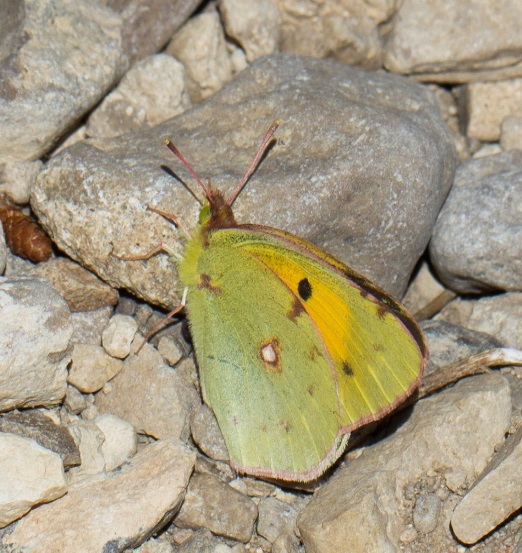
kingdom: Animalia
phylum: Arthropoda
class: Insecta
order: Lepidoptera
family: Pieridae
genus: Colias
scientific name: Colias croceus
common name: Clouded yellow
